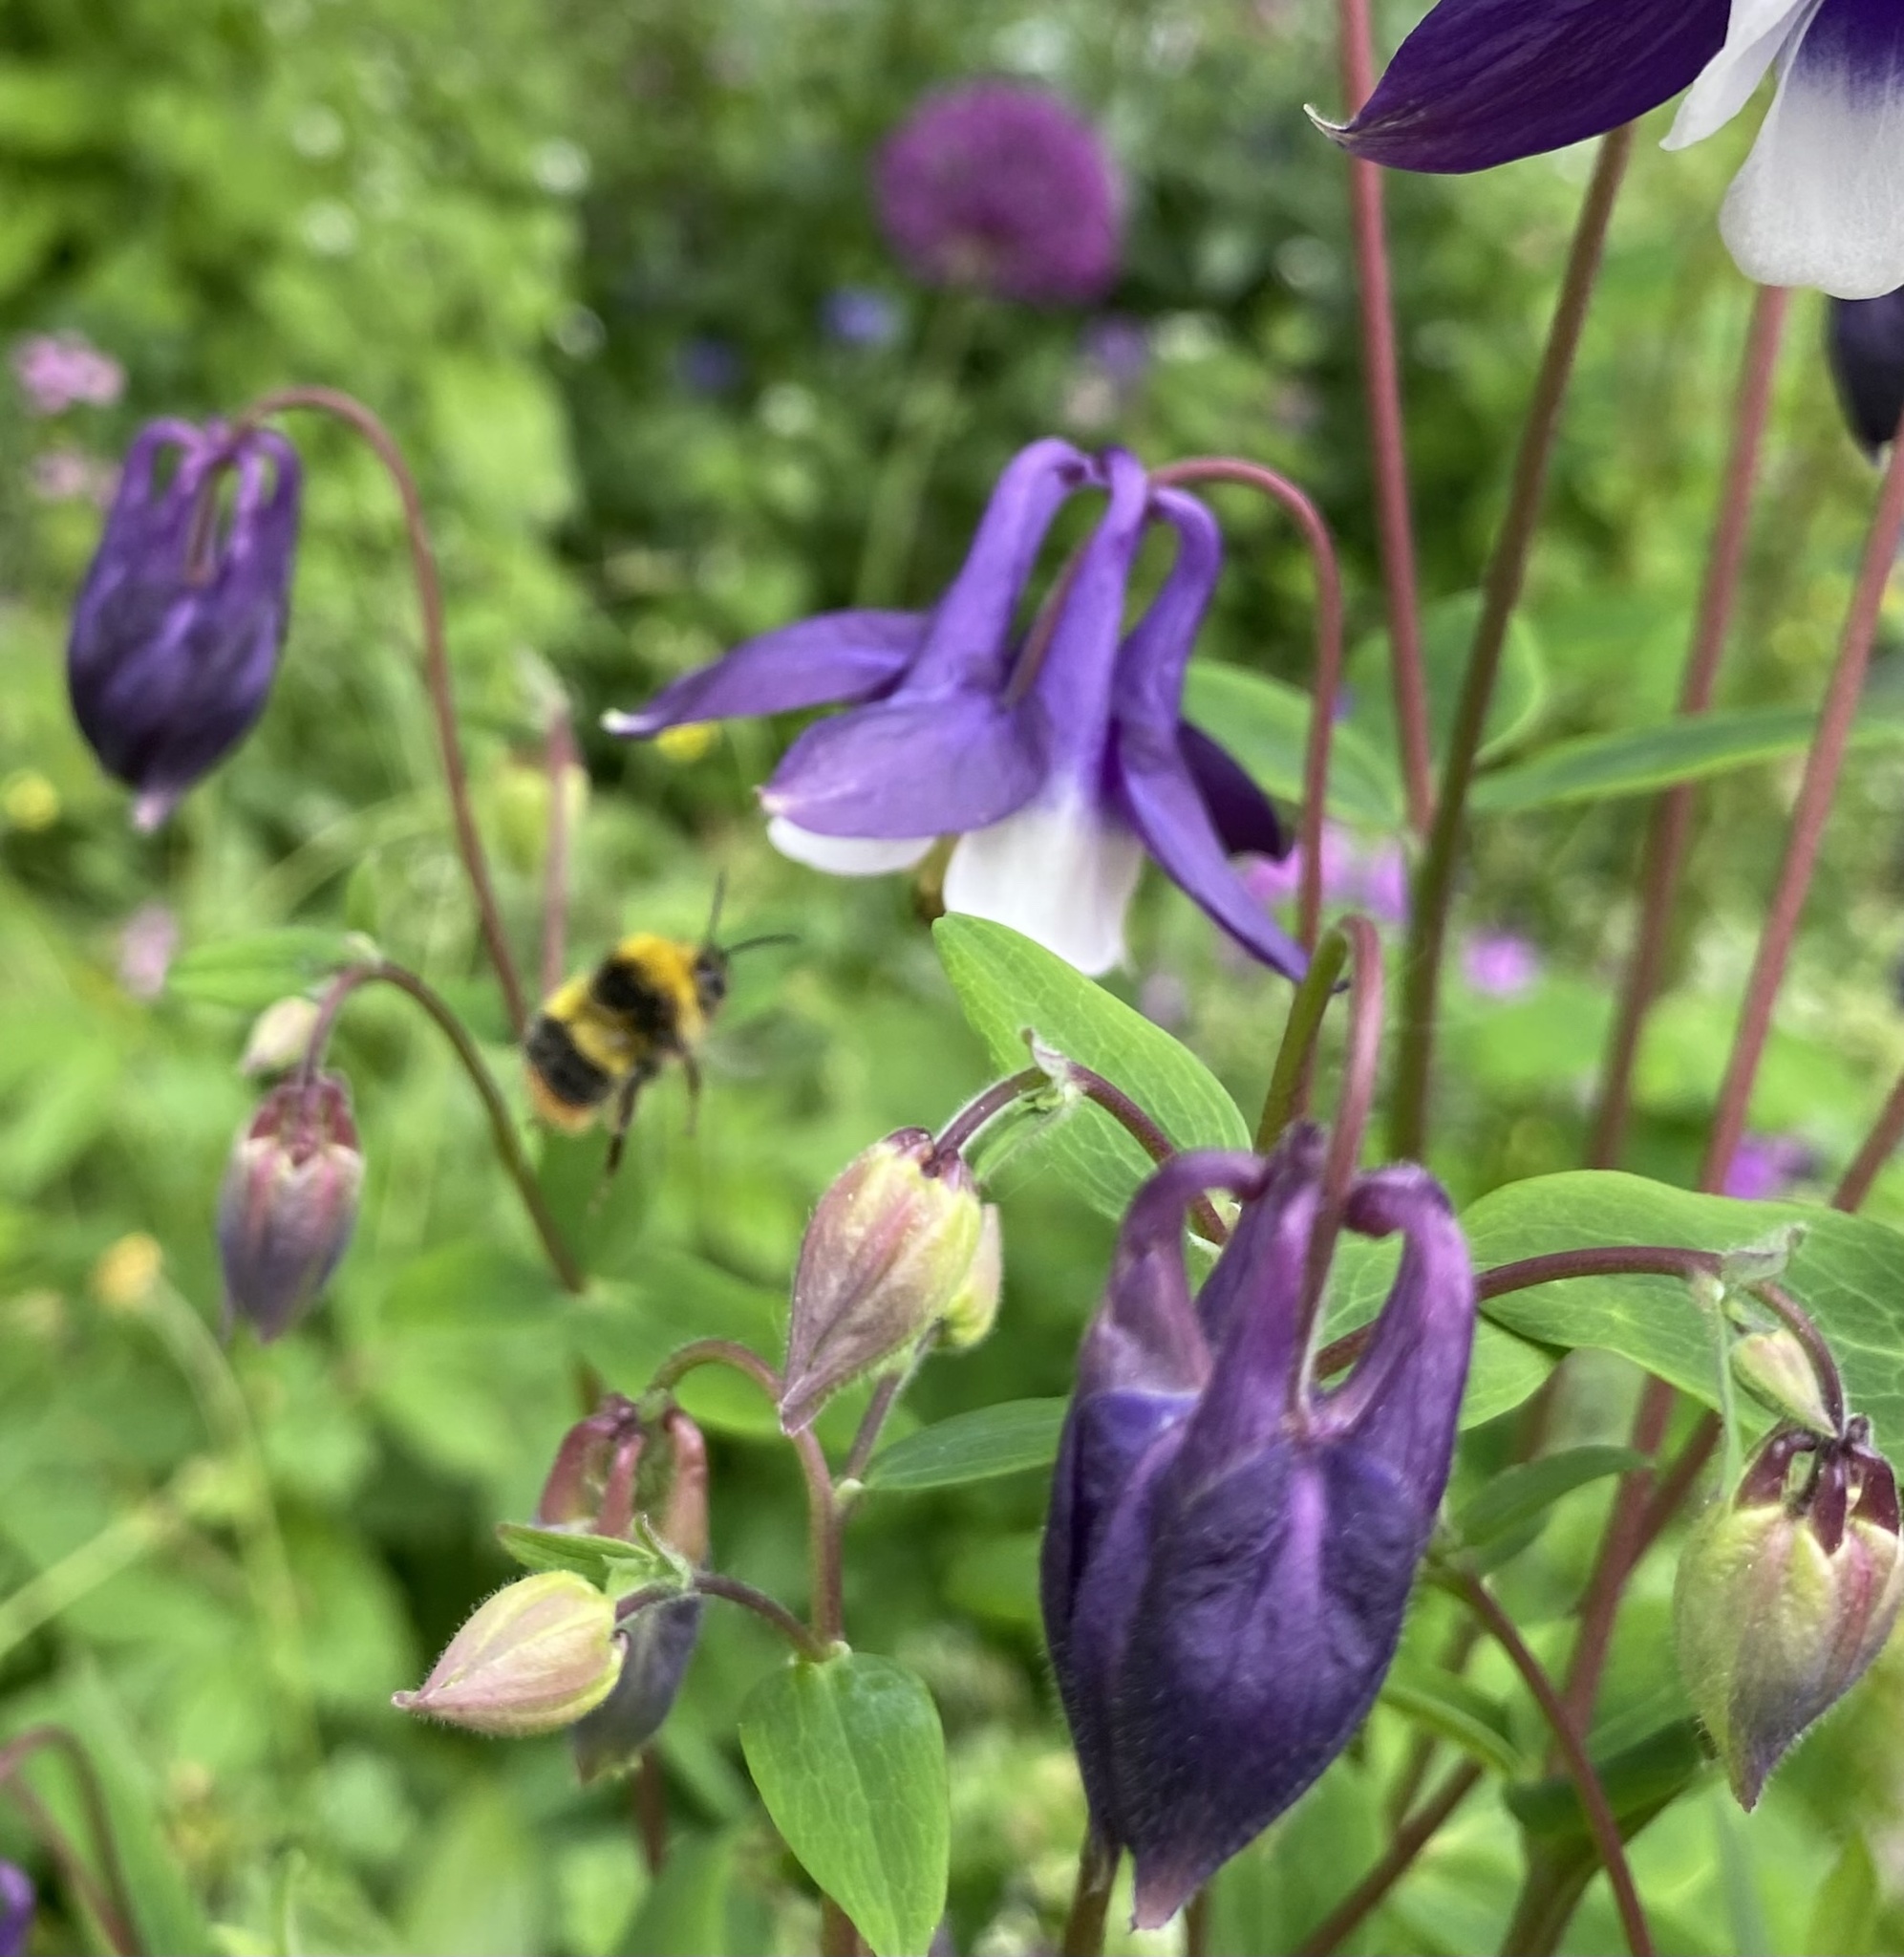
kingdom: Animalia
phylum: Arthropoda
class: Insecta
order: Hymenoptera
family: Apidae
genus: Bombus
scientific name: Bombus pratorum
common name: Early humble-bee
